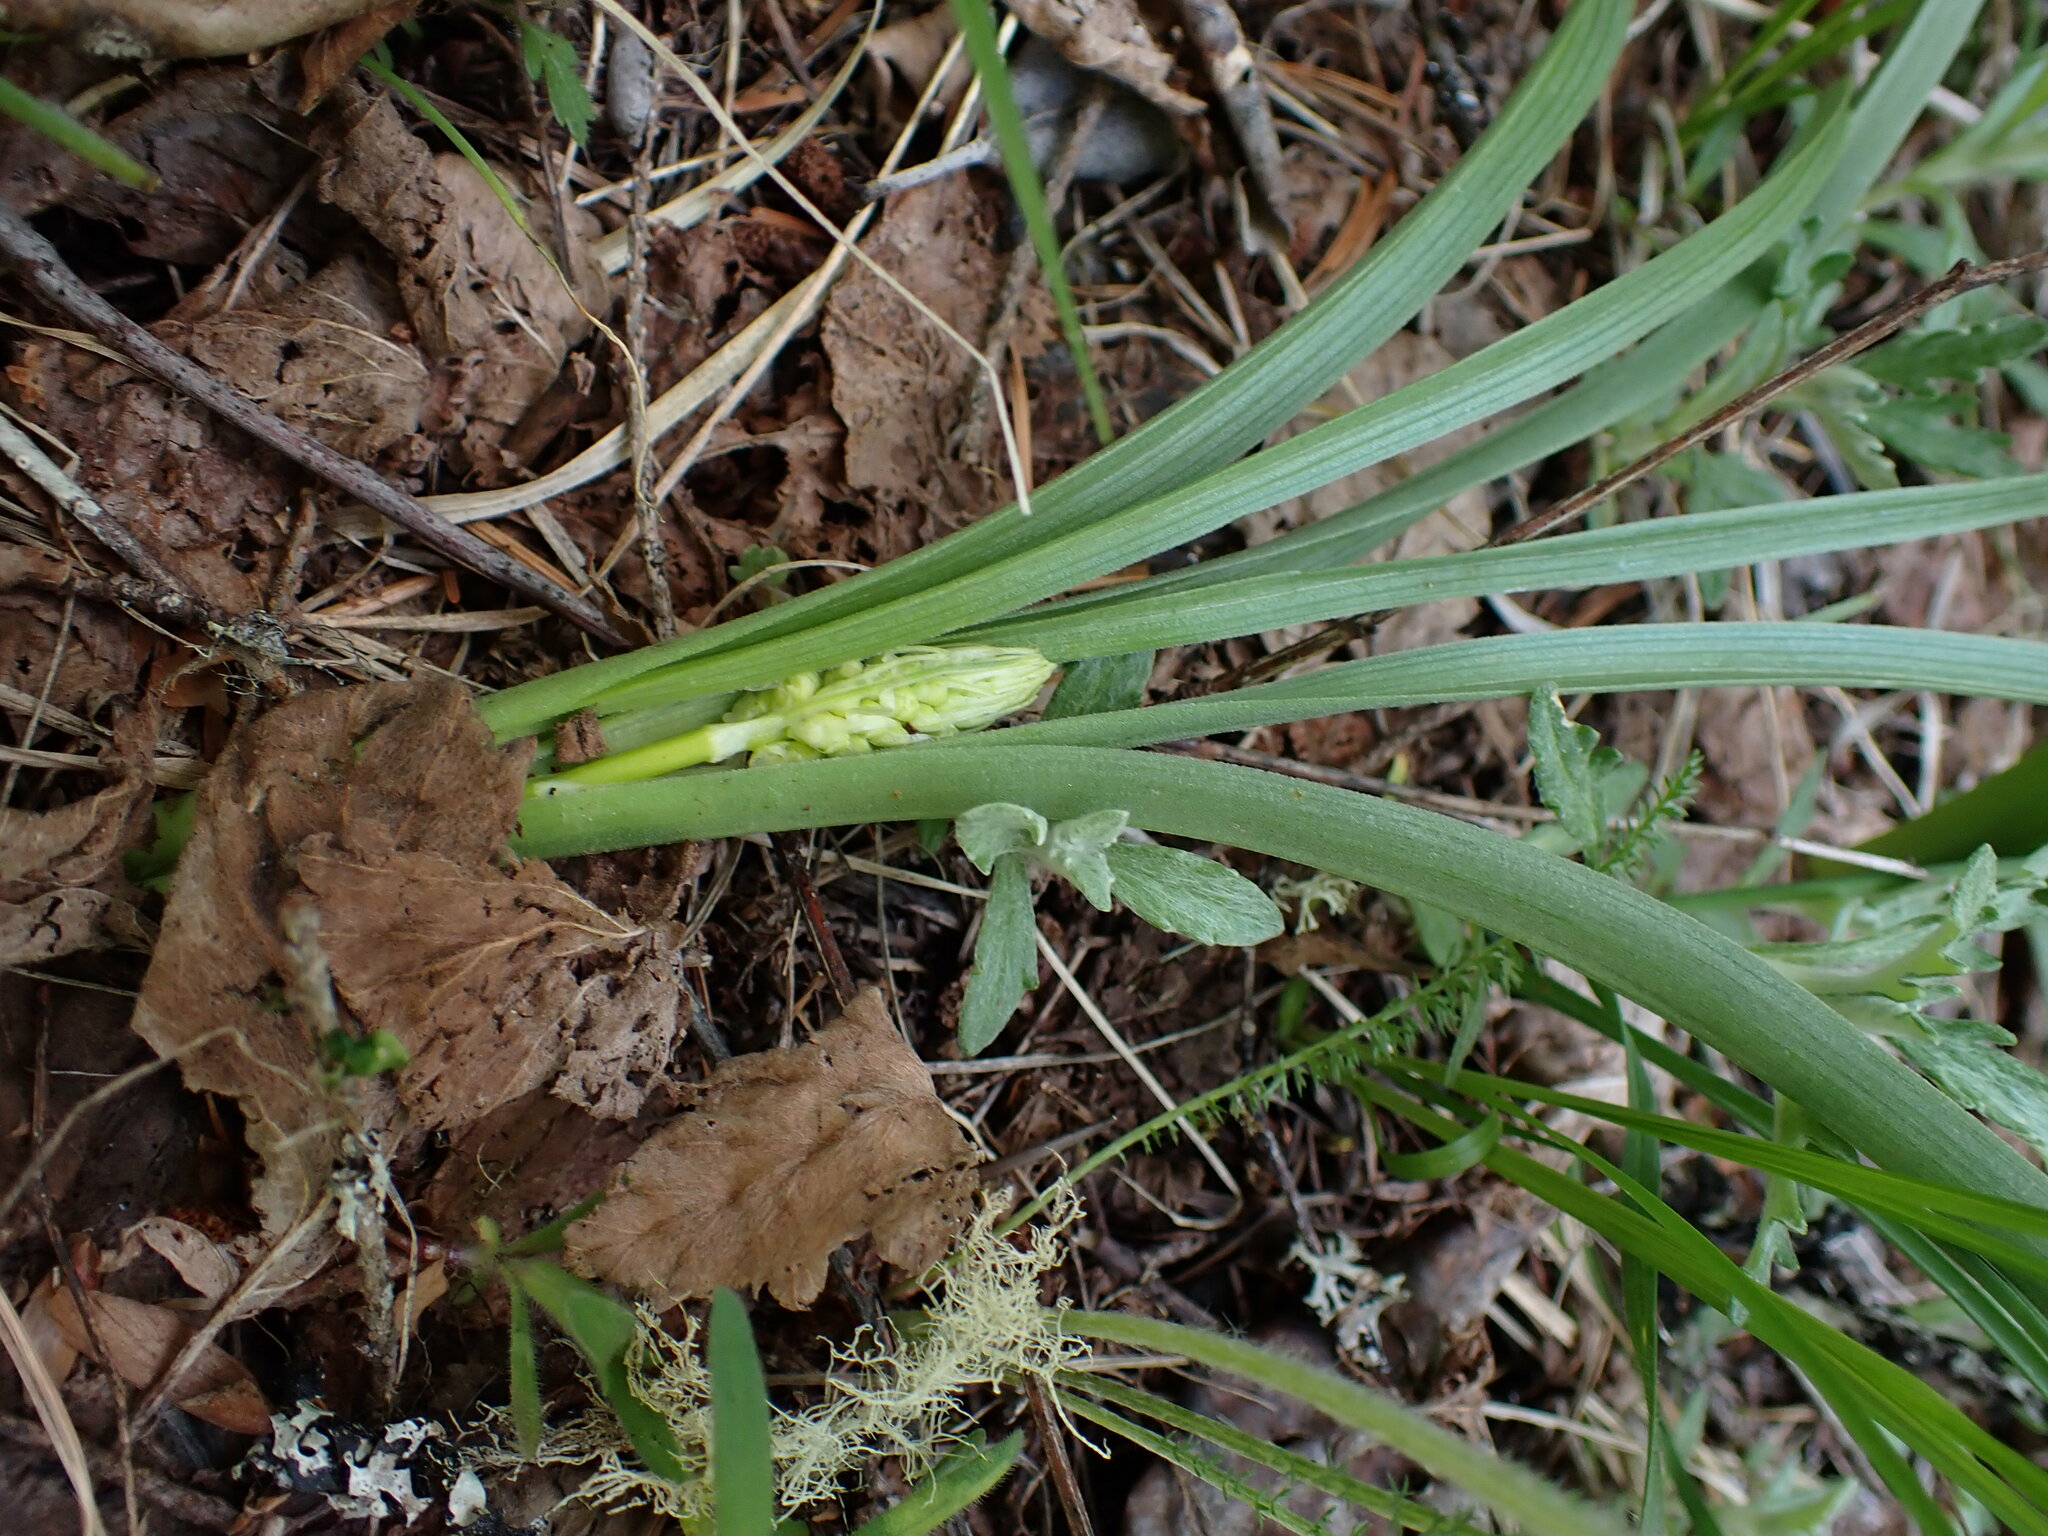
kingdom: Plantae
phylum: Tracheophyta
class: Liliopsida
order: Liliales
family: Melanthiaceae
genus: Toxicoscordion
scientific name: Toxicoscordion venenosum
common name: Meadow death camas
